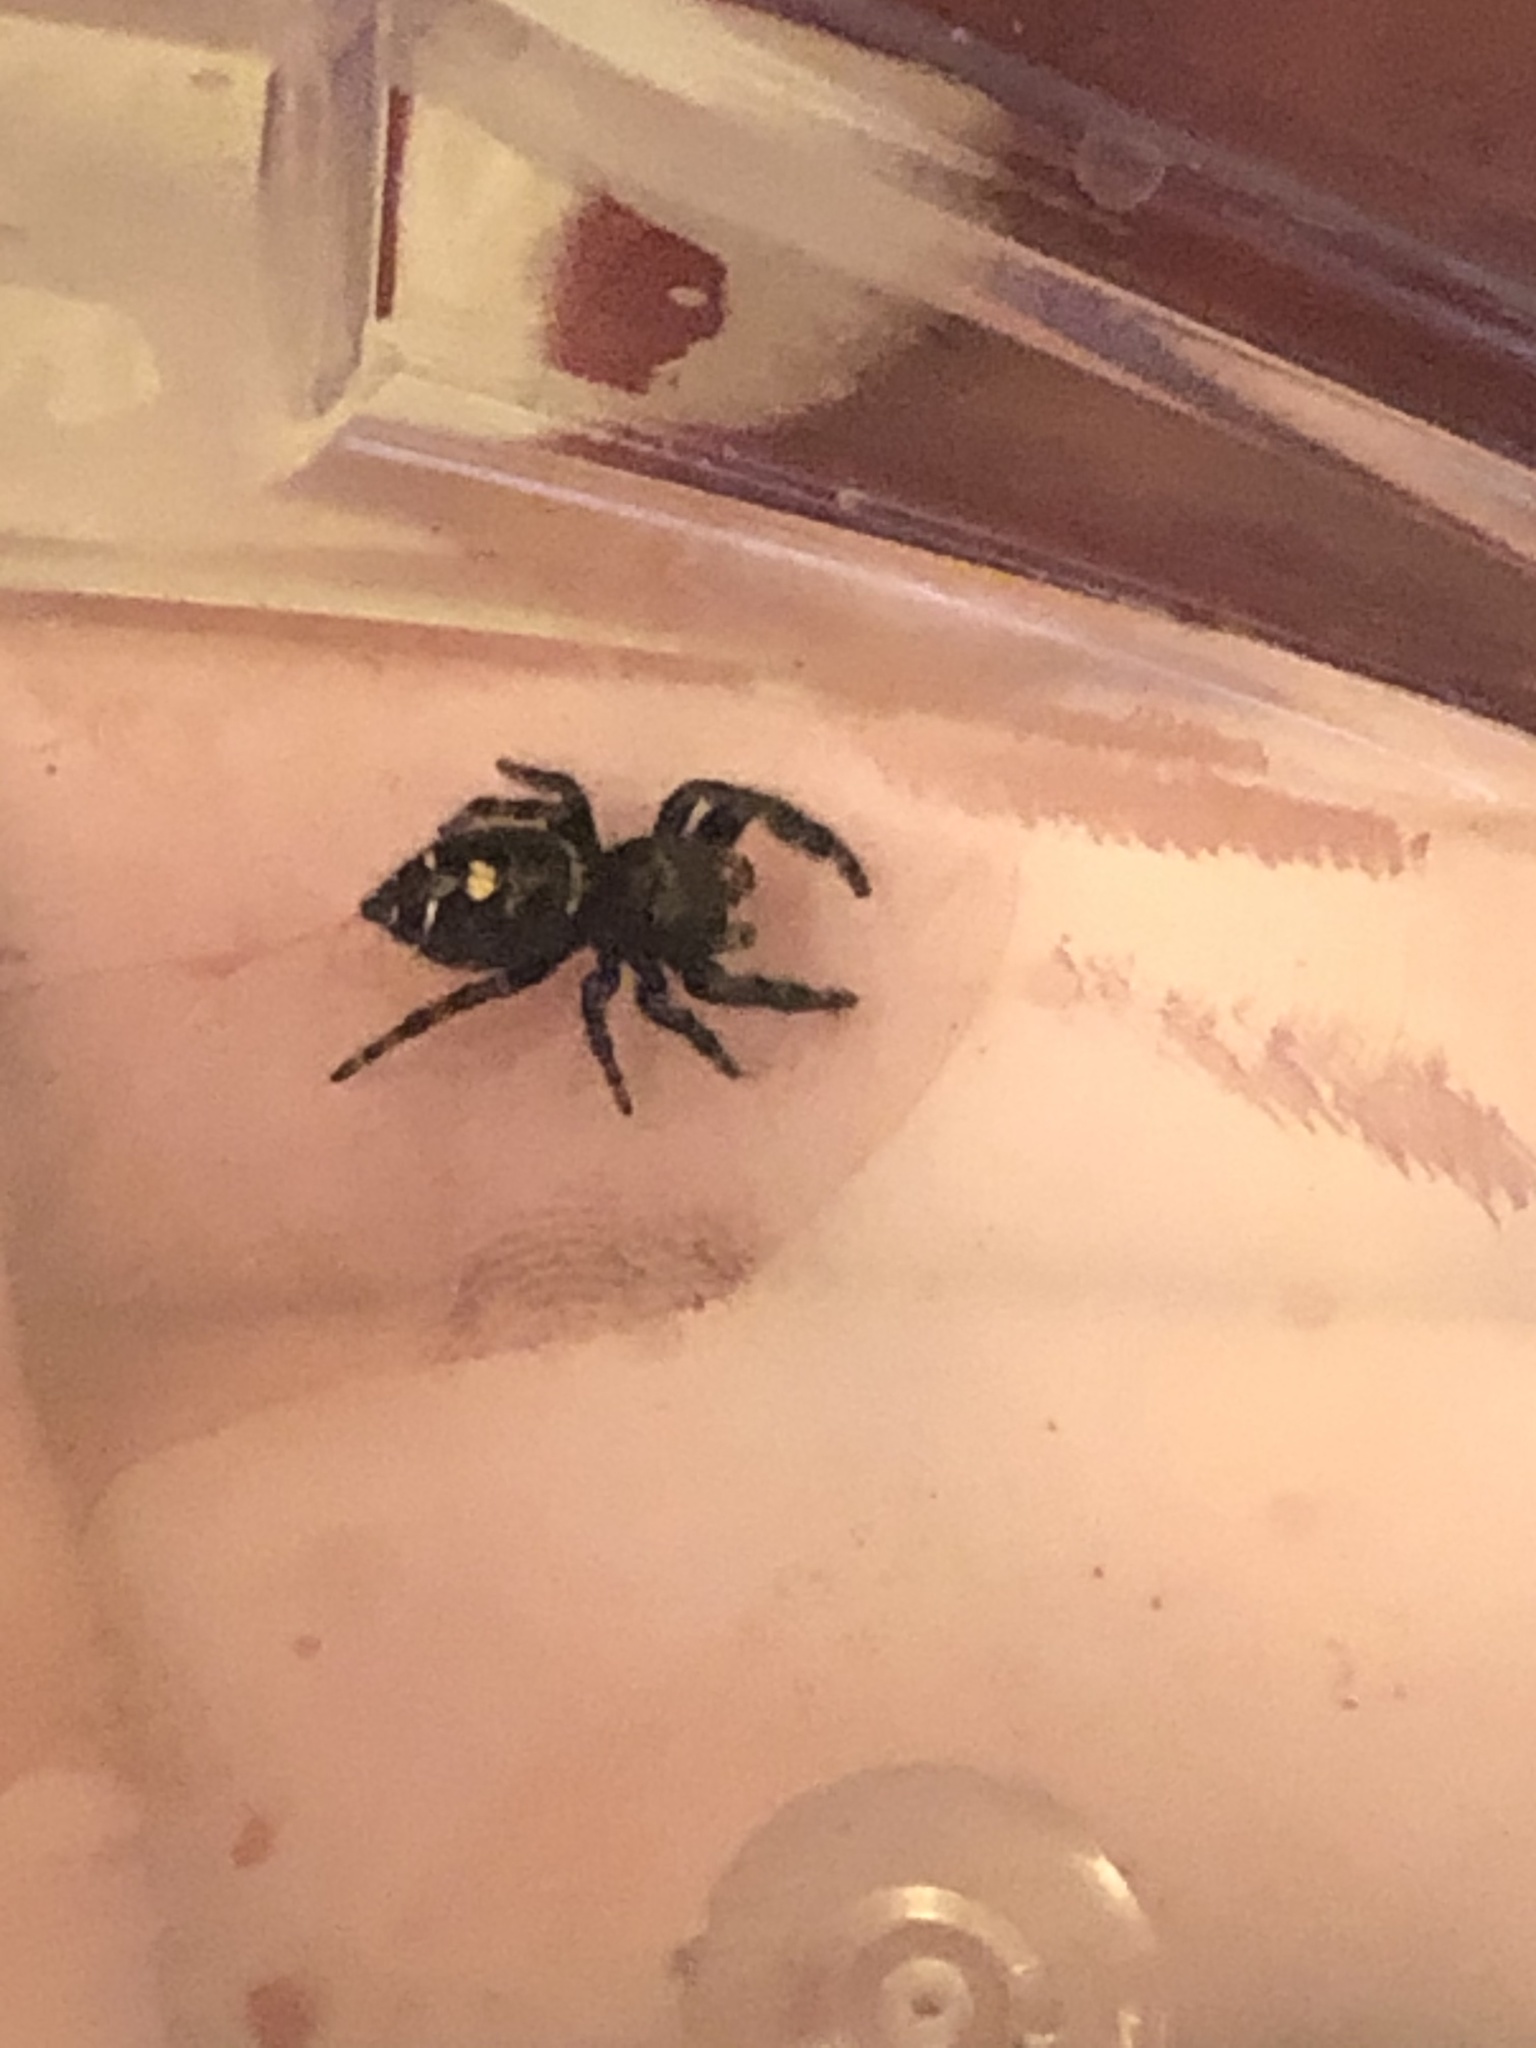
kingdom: Animalia
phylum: Arthropoda
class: Arachnida
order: Araneae
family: Salticidae
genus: Phidippus
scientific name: Phidippus audax
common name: Bold jumper
